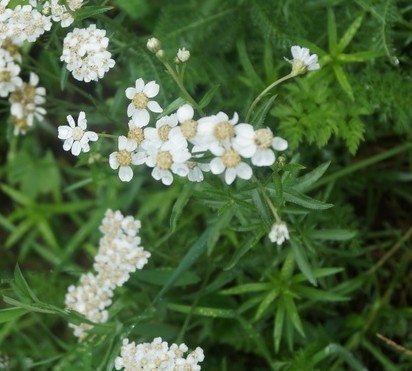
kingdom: Plantae
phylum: Tracheophyta
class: Magnoliopsida
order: Asterales
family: Asteraceae
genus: Achillea
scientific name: Achillea ptarmica
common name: Sneezeweed
